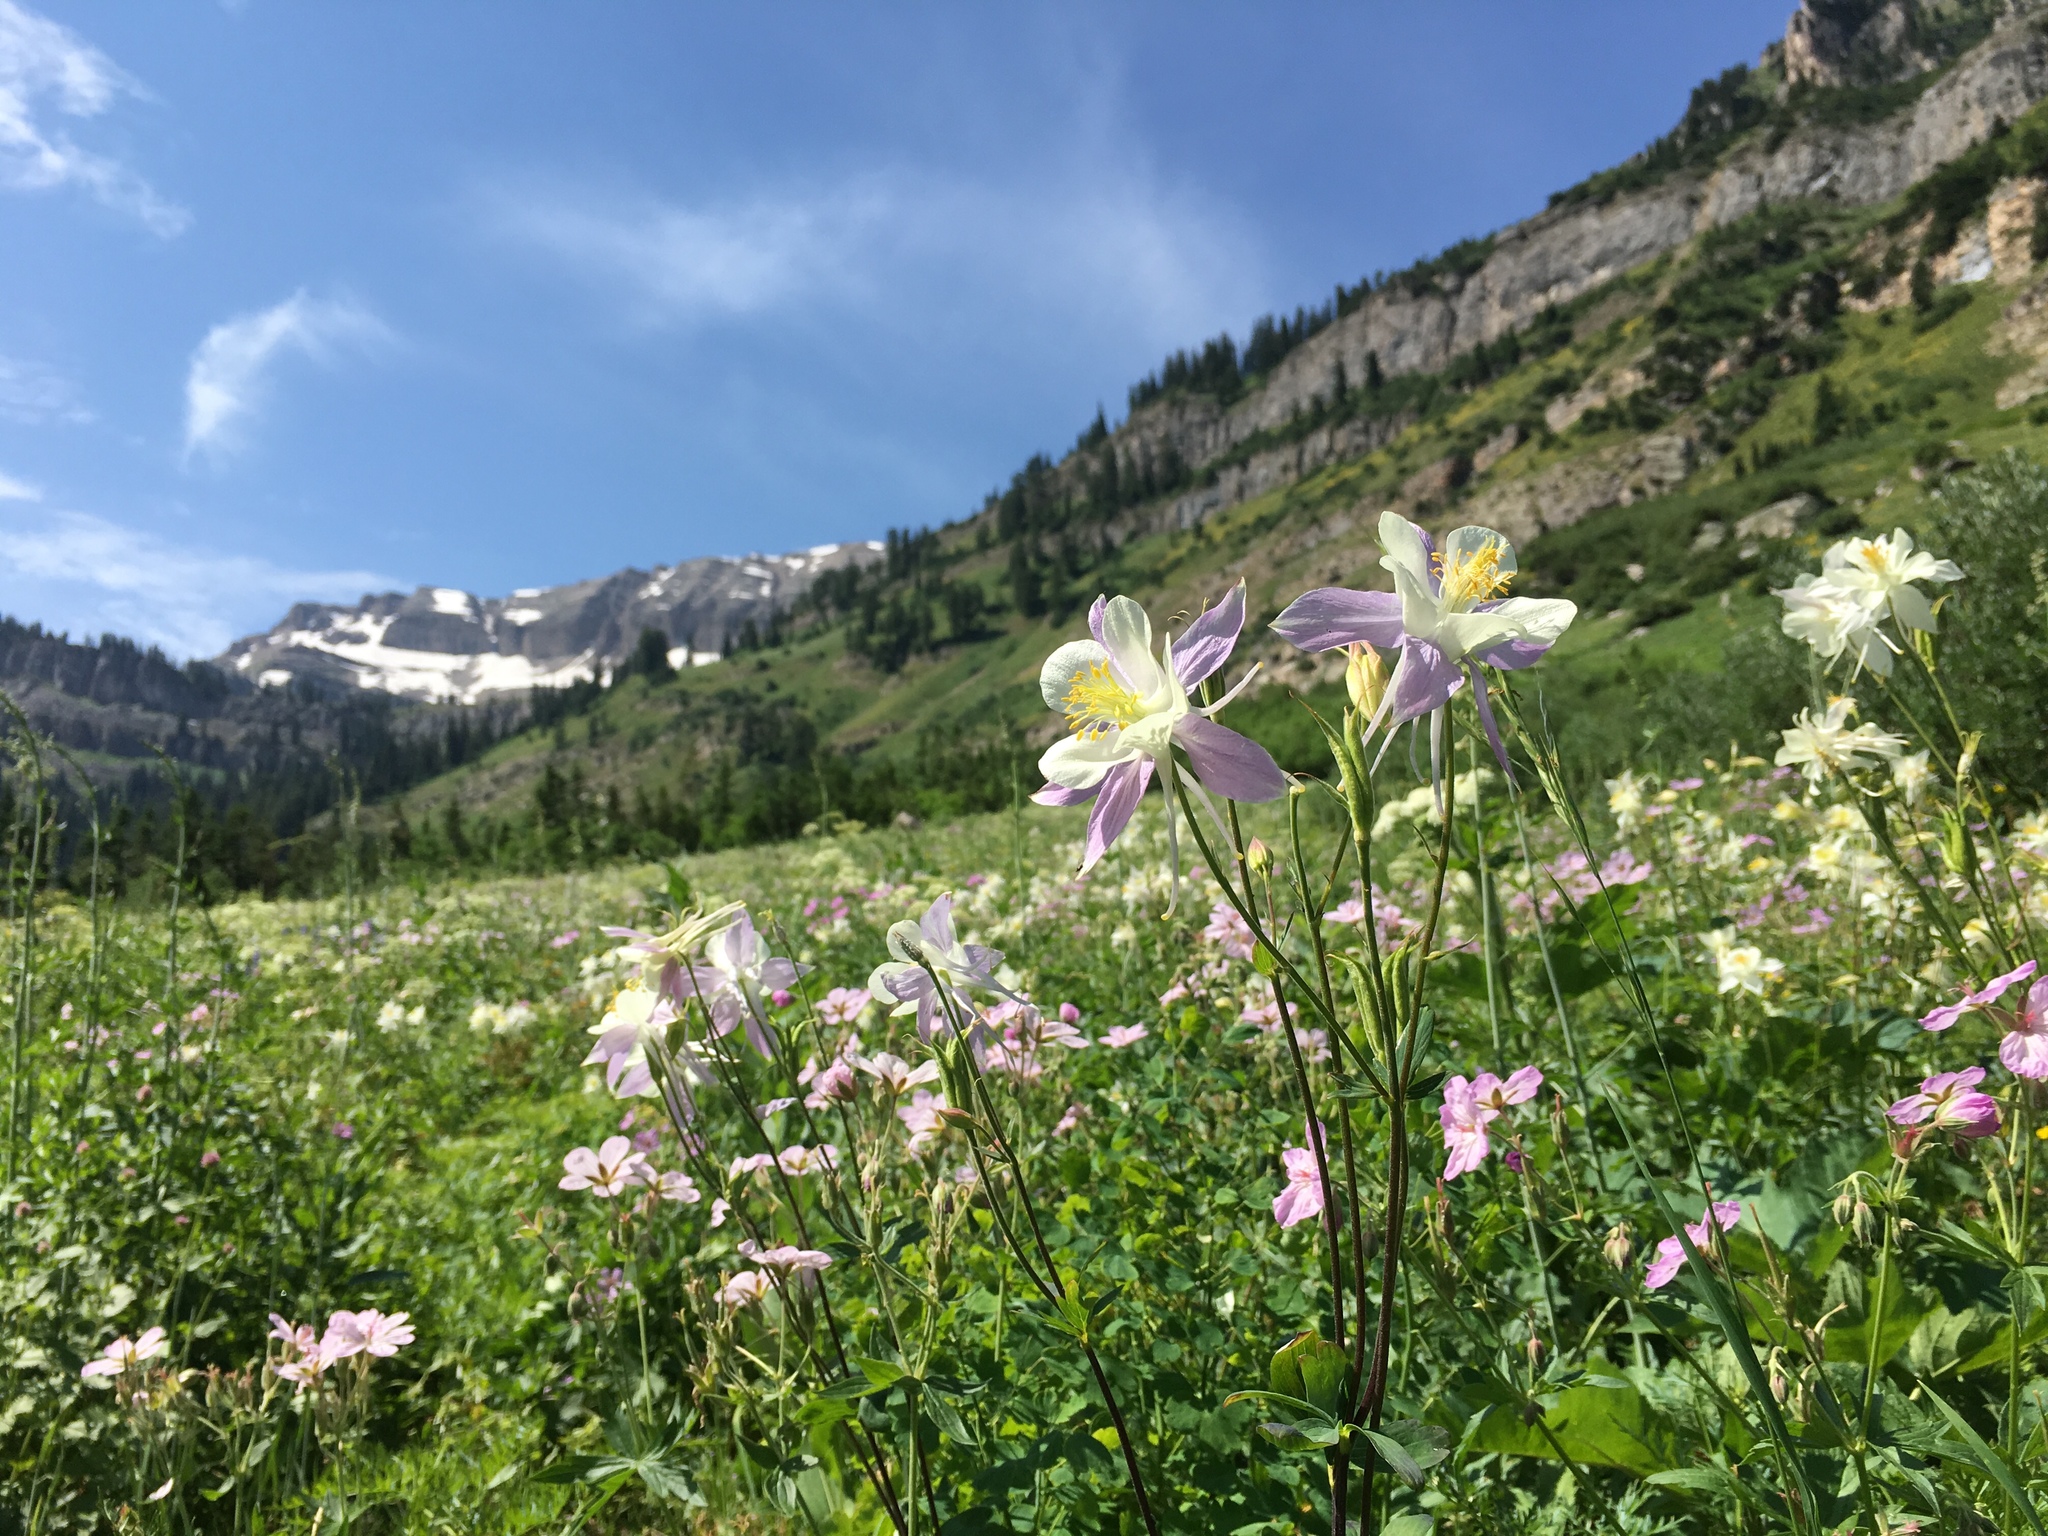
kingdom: Plantae
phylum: Tracheophyta
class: Magnoliopsida
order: Ranunculales
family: Ranunculaceae
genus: Aquilegia
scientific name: Aquilegia coerulea
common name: Rocky mountain columbine
